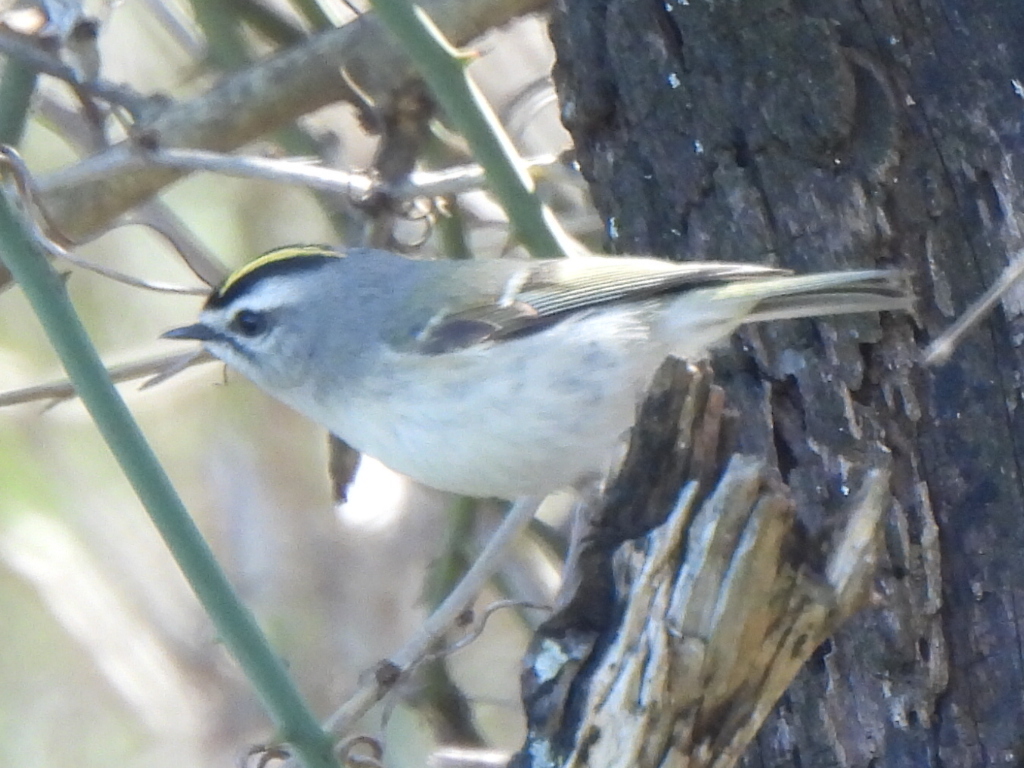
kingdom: Animalia
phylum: Chordata
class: Aves
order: Passeriformes
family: Regulidae
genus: Regulus
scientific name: Regulus satrapa
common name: Golden-crowned kinglet
